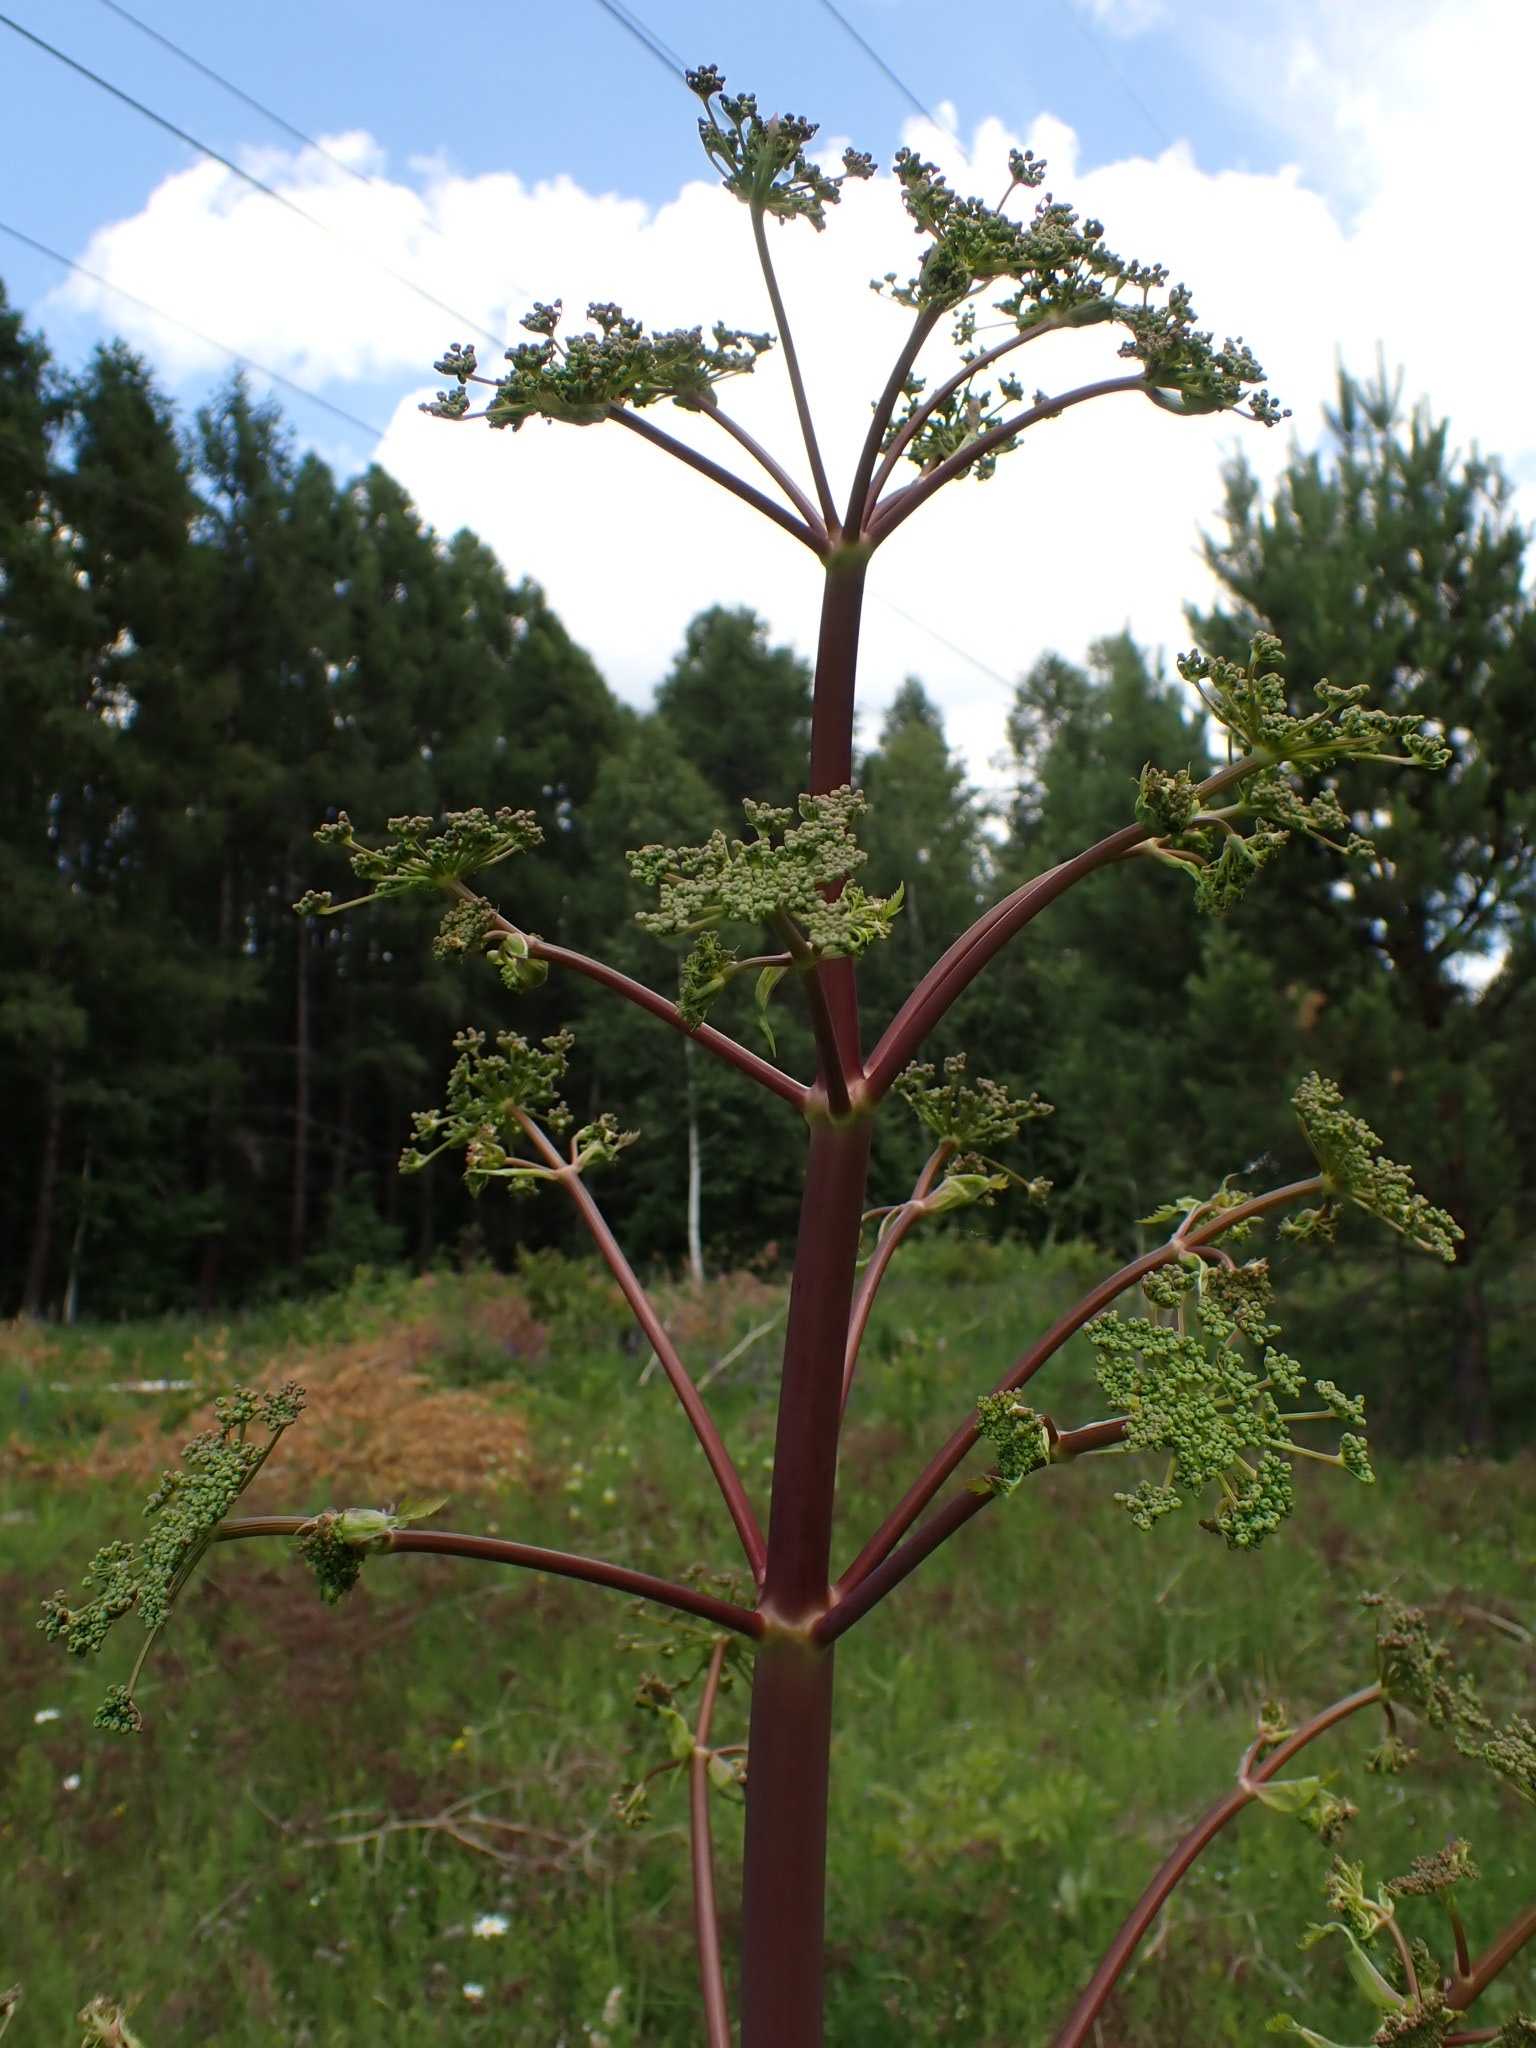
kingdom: Plantae
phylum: Tracheophyta
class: Magnoliopsida
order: Apiales
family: Apiaceae
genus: Xanthogalum
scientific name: Xanthogalum purpurascens
